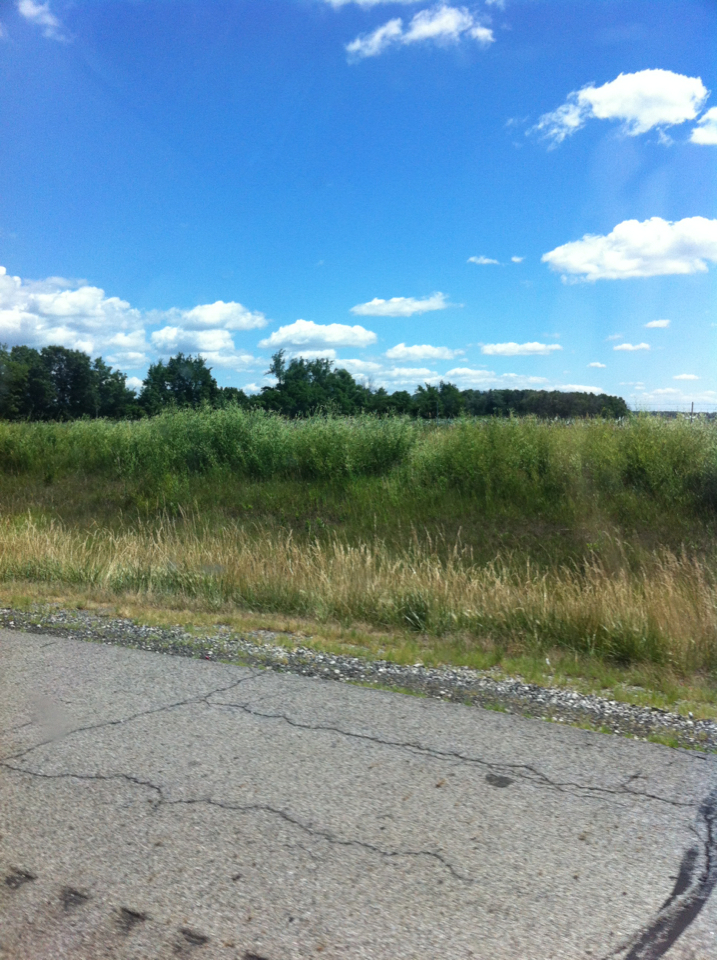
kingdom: Plantae
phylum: Tracheophyta
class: Magnoliopsida
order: Fabales
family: Fabaceae
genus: Melilotus
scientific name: Melilotus albus
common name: White melilot
